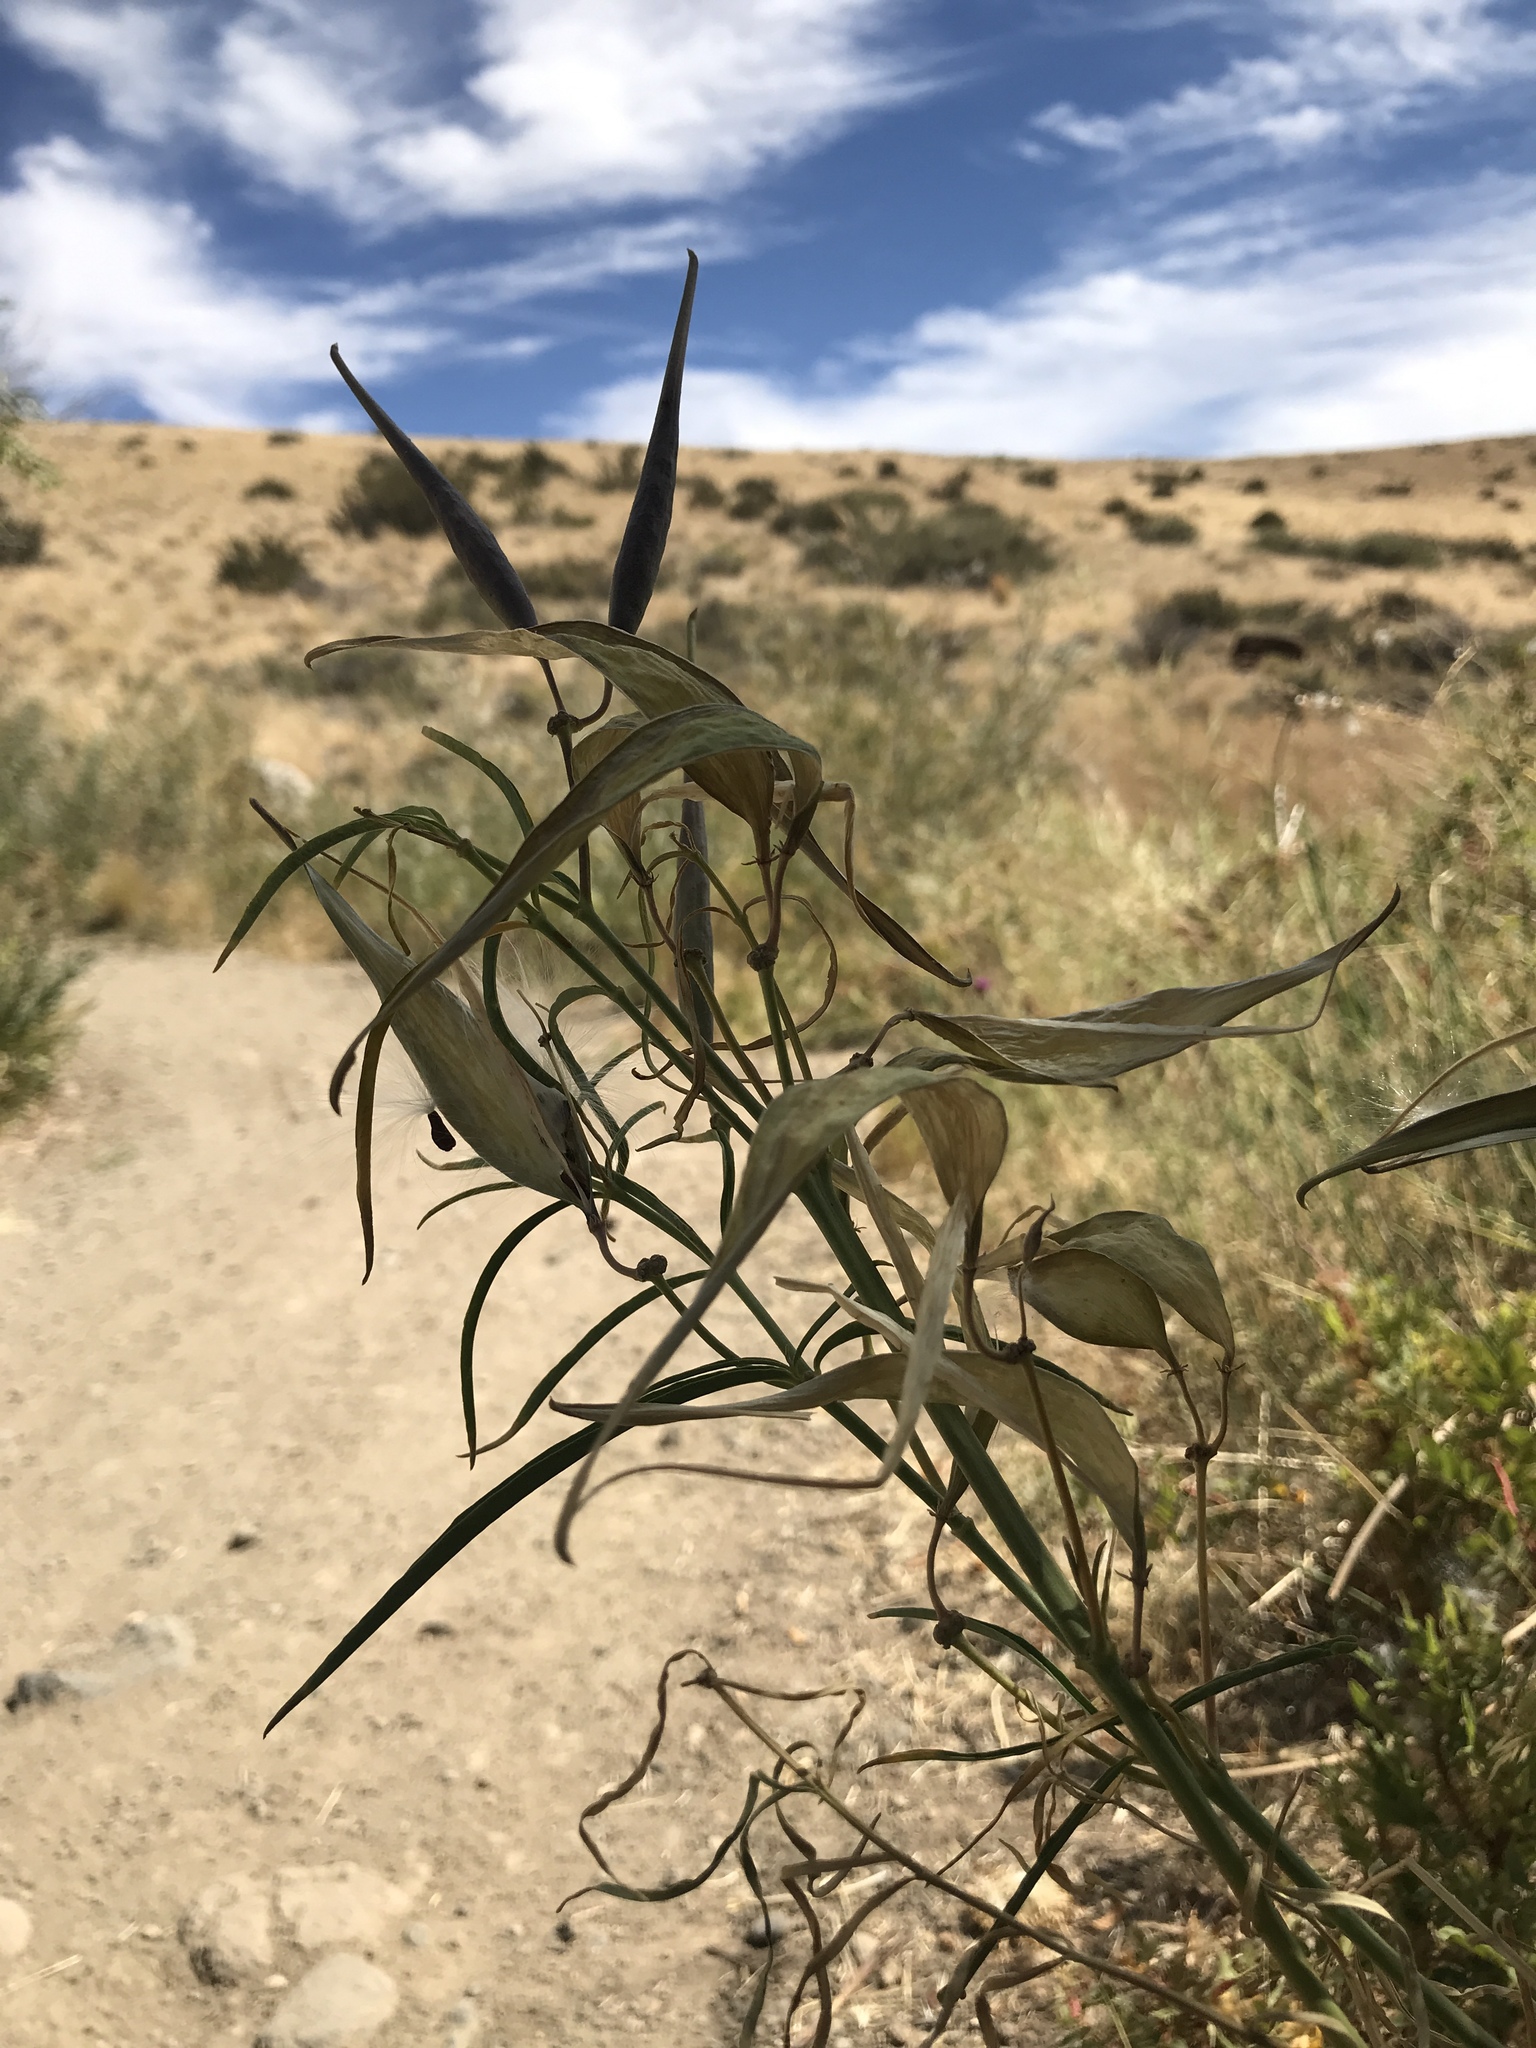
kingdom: Plantae
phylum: Tracheophyta
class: Magnoliopsida
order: Gentianales
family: Apocynaceae
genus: Asclepias
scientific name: Asclepias fascicularis
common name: Mexican milkweed
